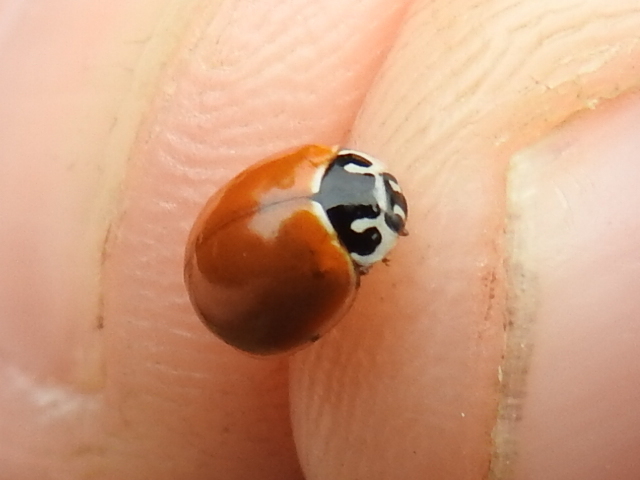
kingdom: Animalia
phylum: Arthropoda
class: Insecta
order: Coleoptera
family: Coccinellidae
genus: Cycloneda
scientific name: Cycloneda munda
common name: Polished lady beetle
